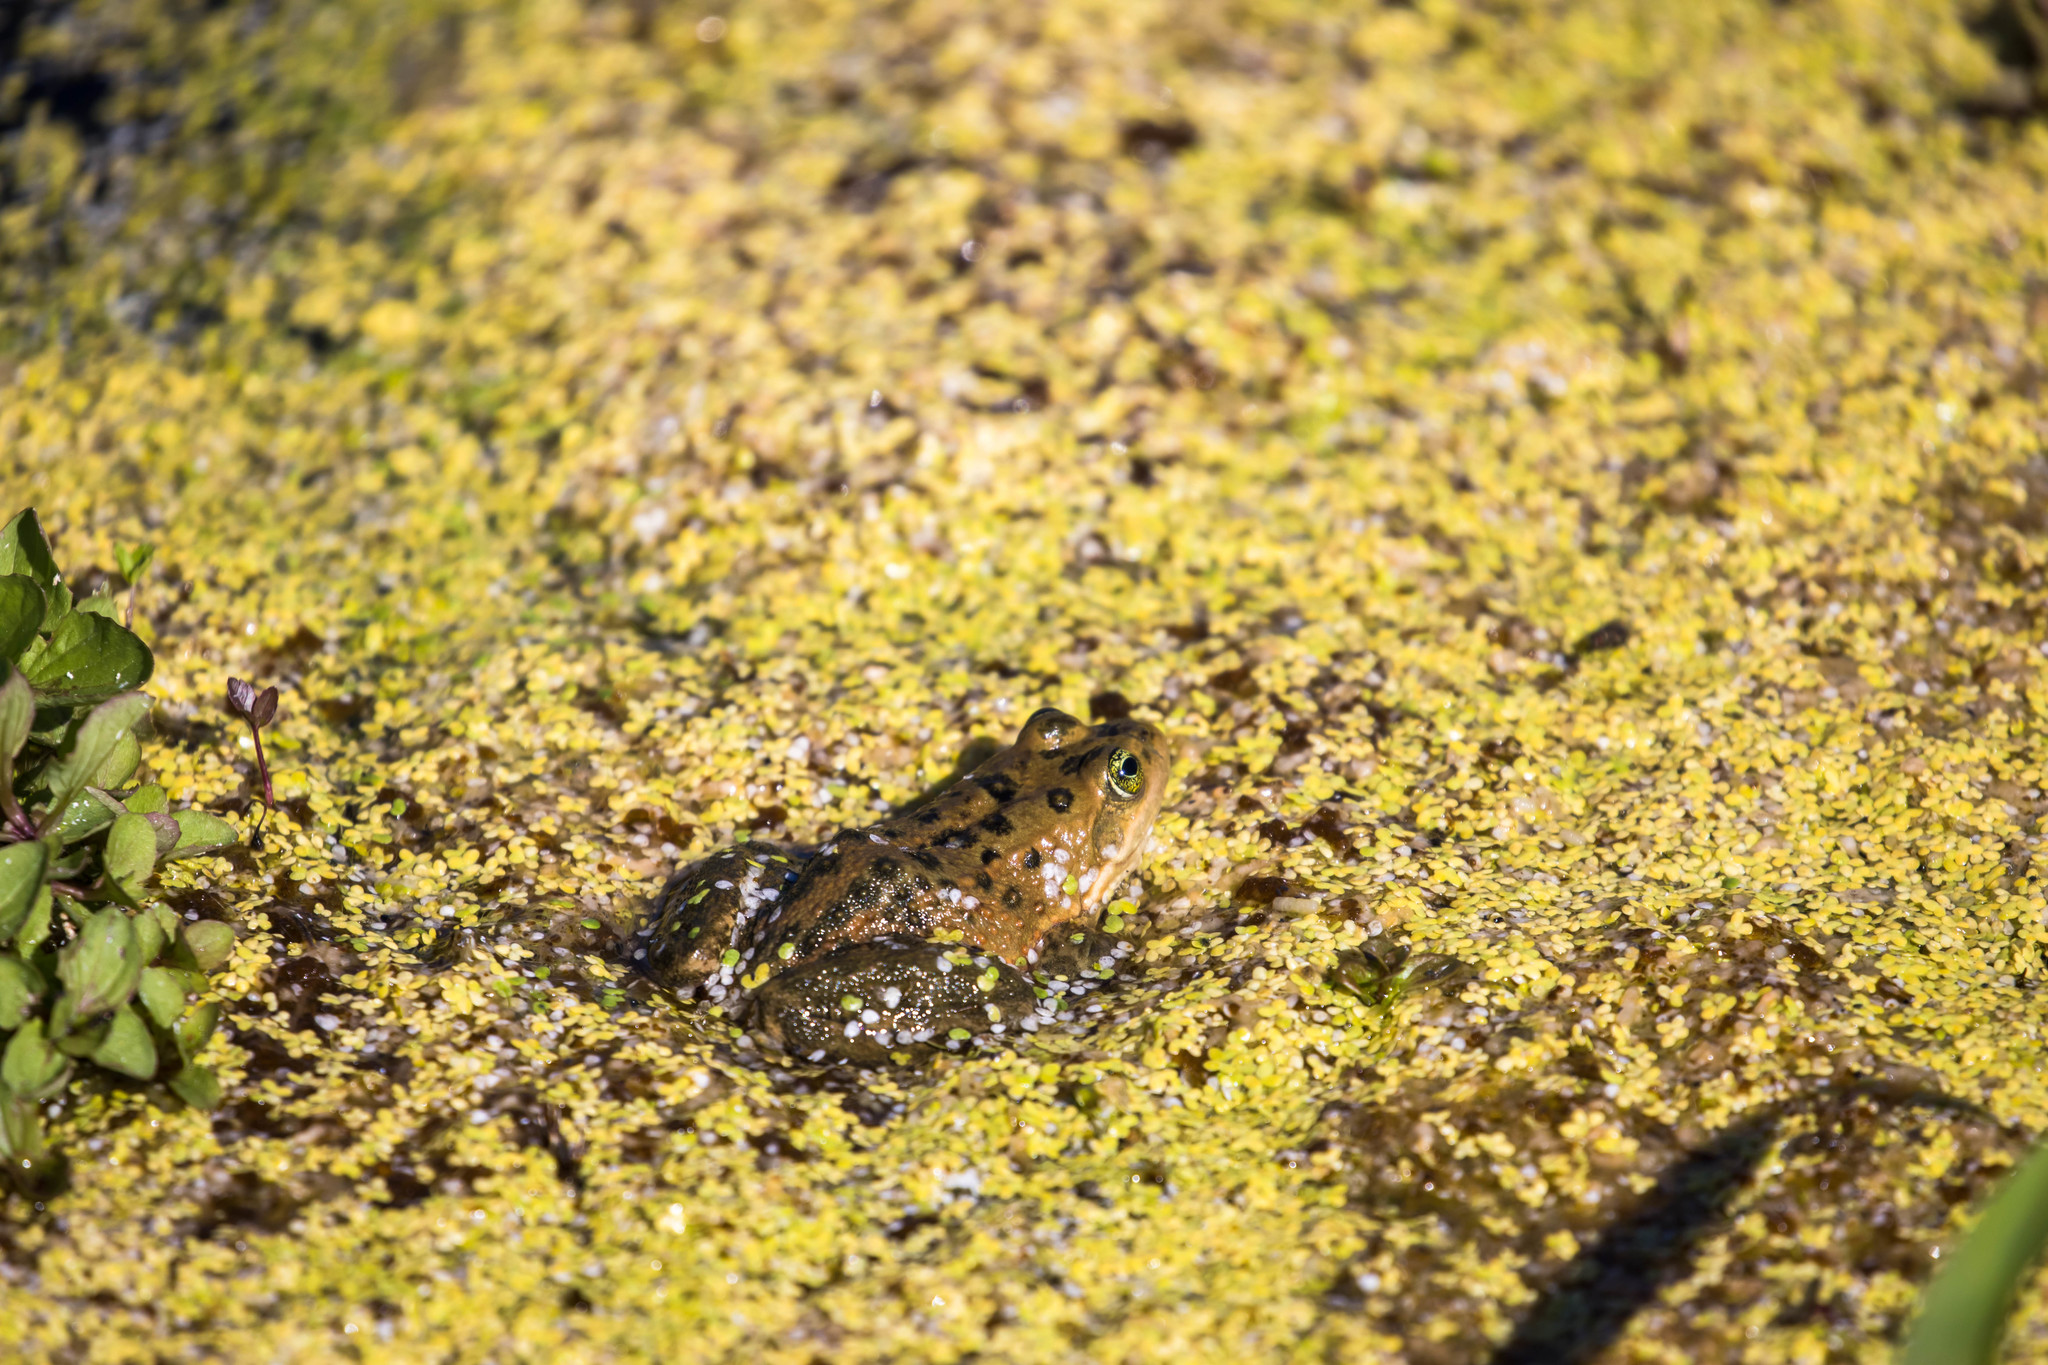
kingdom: Animalia
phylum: Chordata
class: Amphibia
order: Anura
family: Ranidae
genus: Rana
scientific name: Rana pretiosa
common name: Oregon spotted frog
